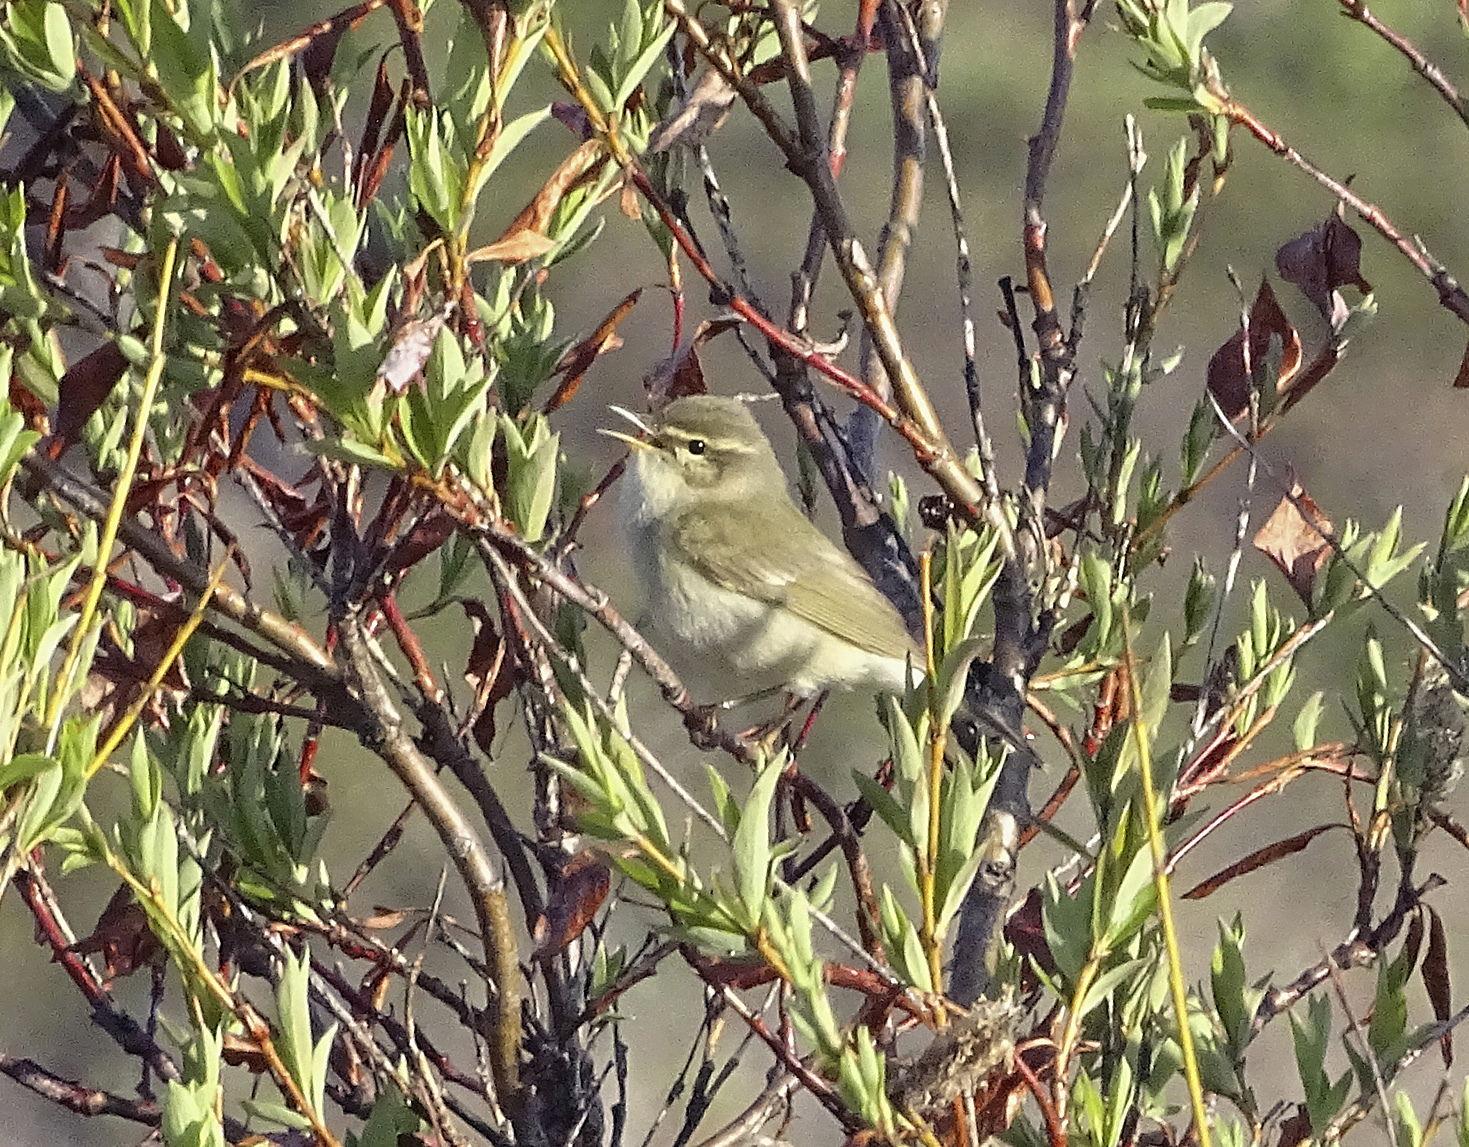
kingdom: Animalia
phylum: Chordata
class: Aves
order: Passeriformes
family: Phylloscopidae
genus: Phylloscopus
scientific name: Phylloscopus borealis
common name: Arctic warbler
